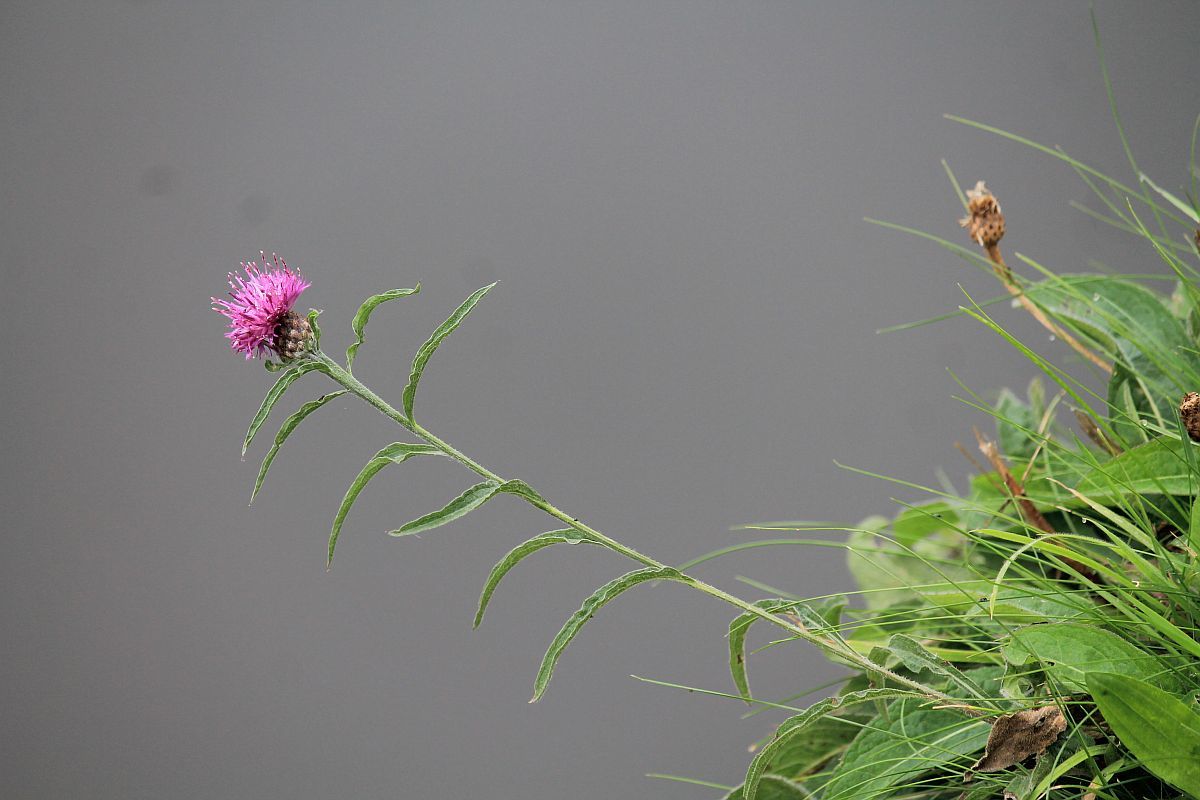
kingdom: Plantae
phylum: Tracheophyta
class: Magnoliopsida
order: Asterales
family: Asteraceae
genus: Centaurea
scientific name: Centaurea nigra
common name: Lesser knapweed
